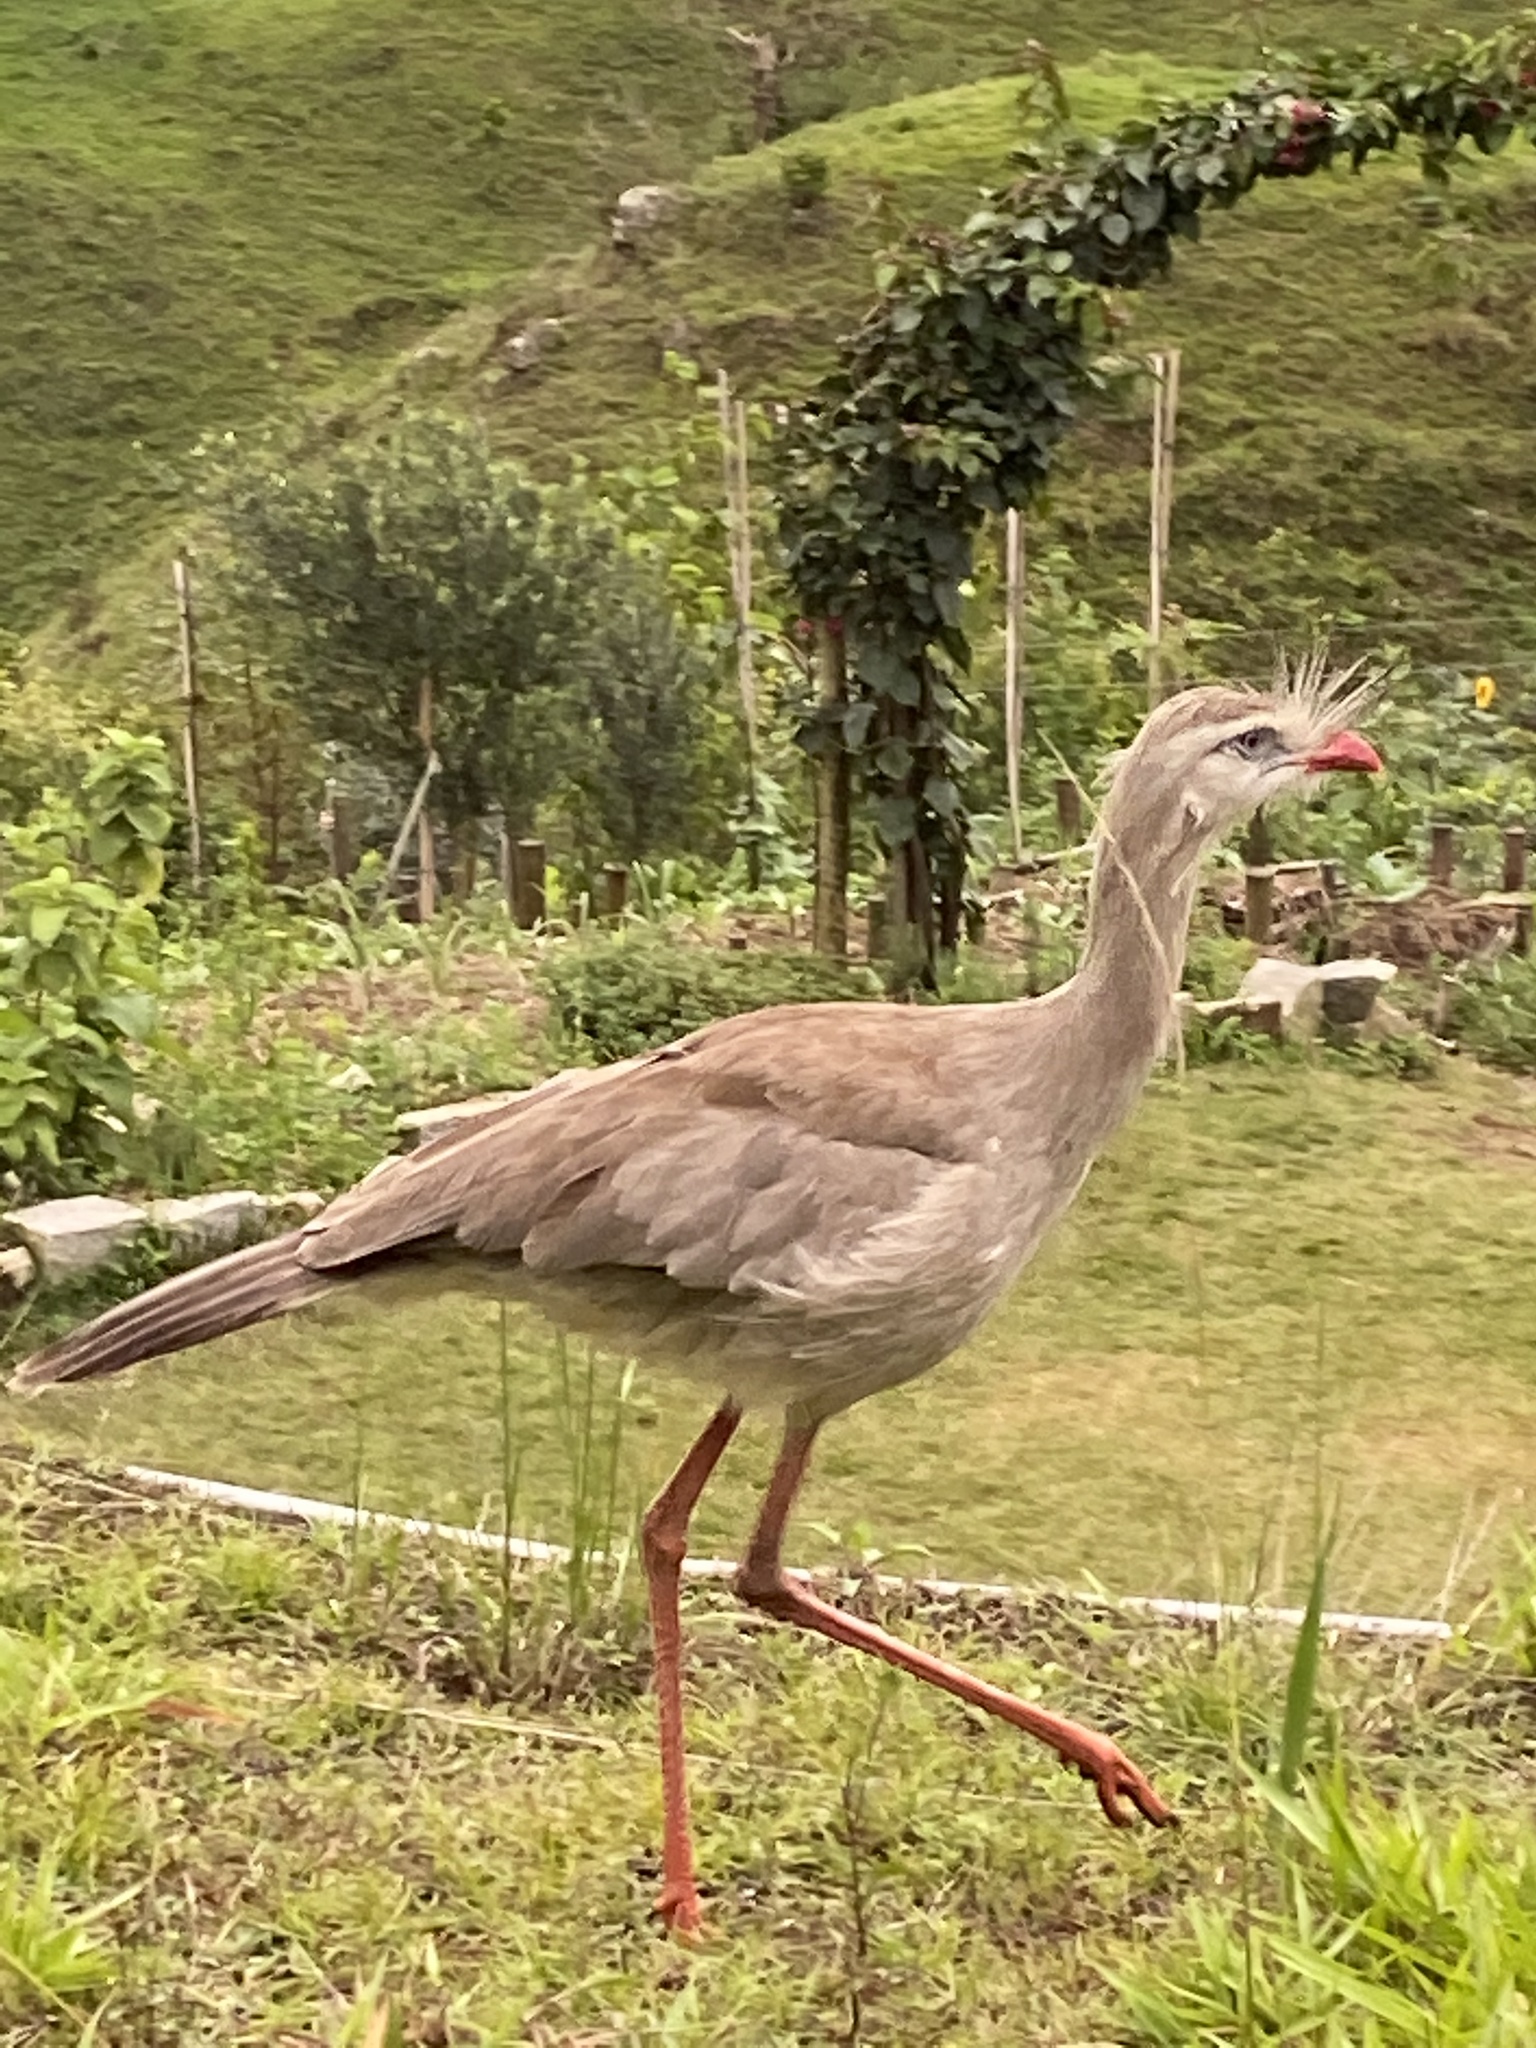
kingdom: Animalia
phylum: Chordata
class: Aves
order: Cariamiformes
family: Cariamidae
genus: Cariama
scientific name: Cariama cristata
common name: Red-legged seriema
